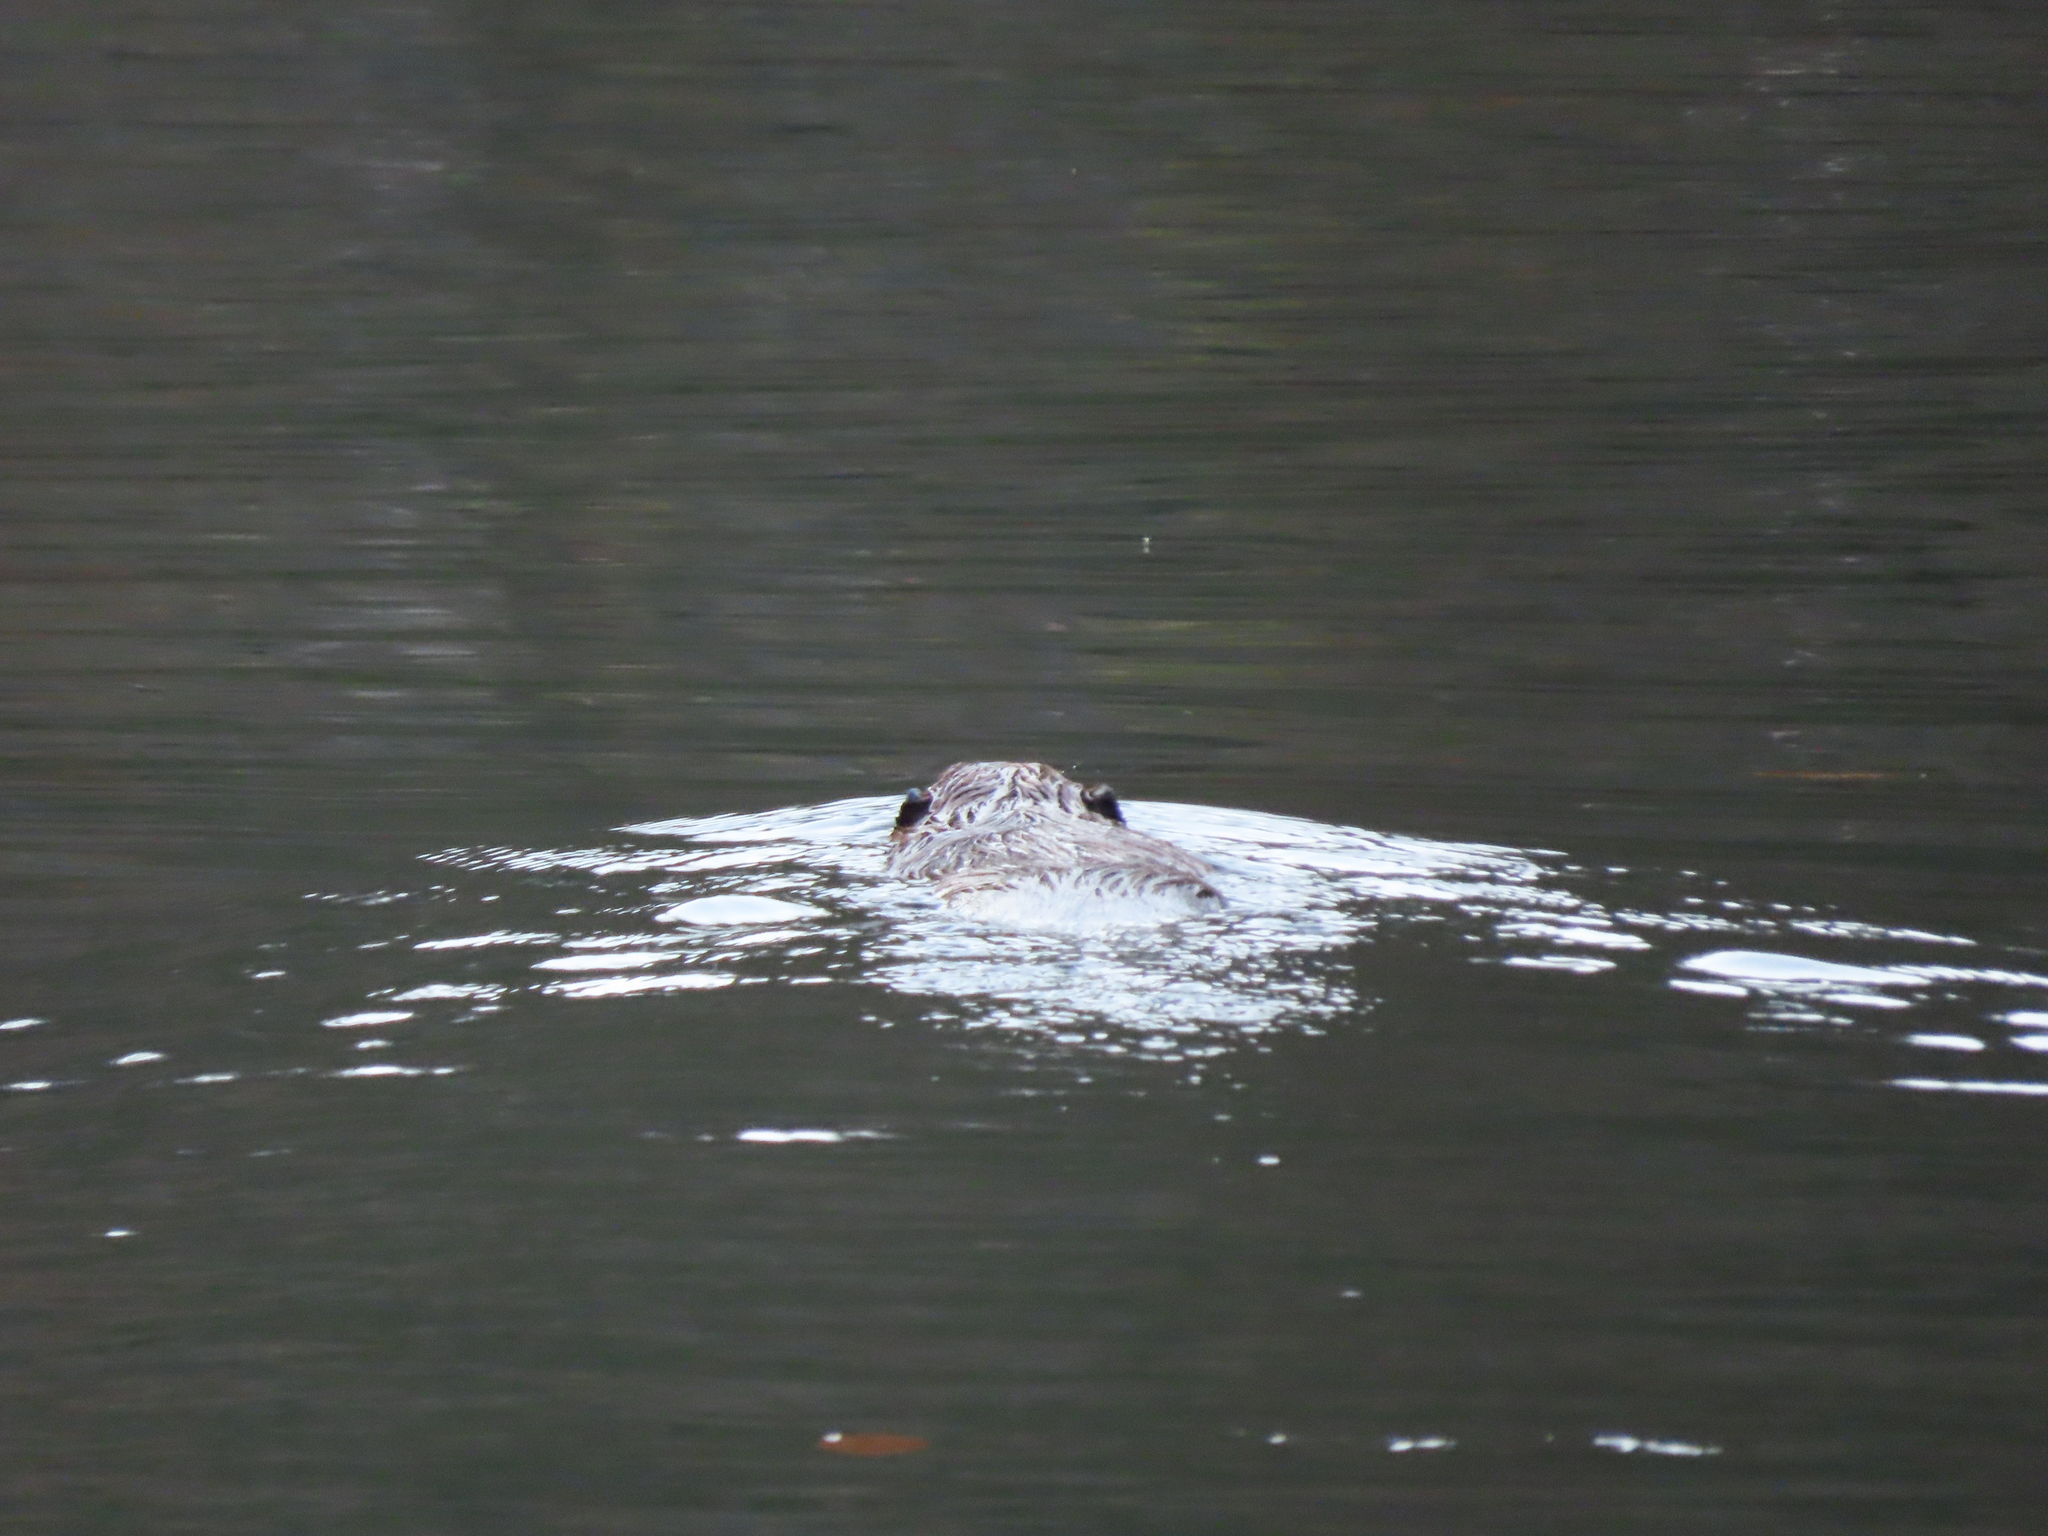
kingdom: Animalia
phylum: Chordata
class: Mammalia
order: Rodentia
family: Castoridae
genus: Castor
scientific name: Castor canadensis
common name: American beaver
